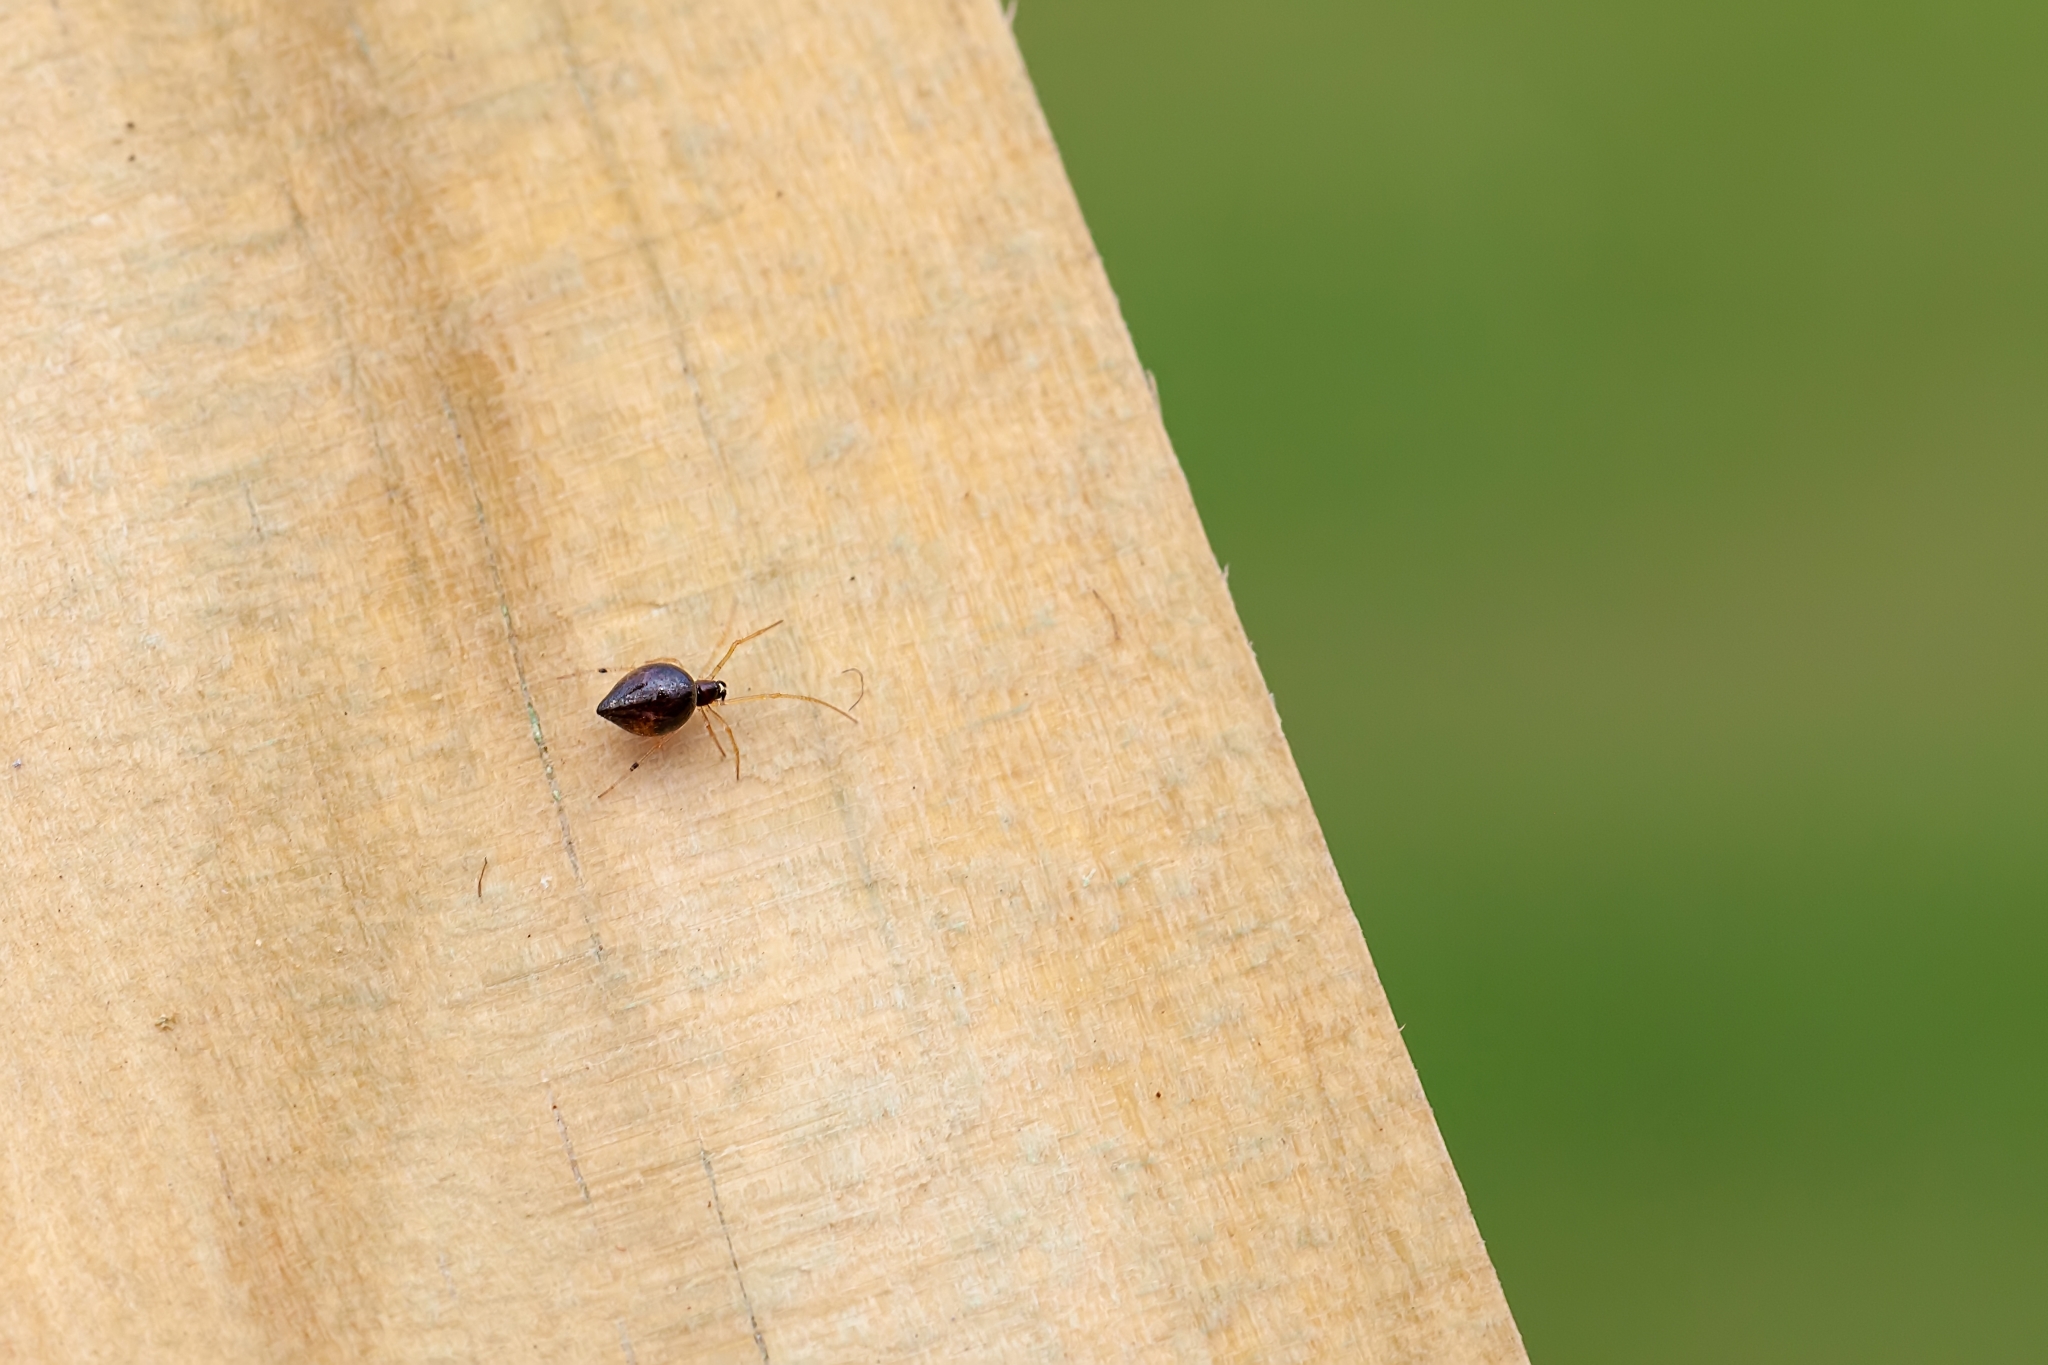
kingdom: Animalia
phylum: Arthropoda
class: Arachnida
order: Araneae
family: Theridiidae
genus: Coleosoma
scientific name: Coleosoma acutiventer
